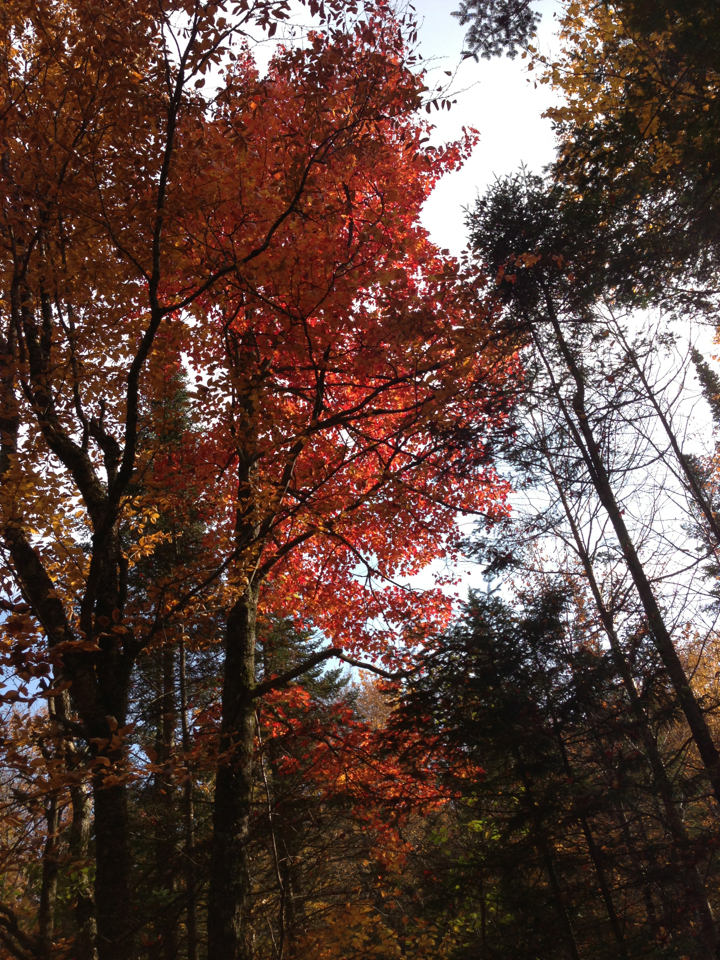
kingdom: Plantae
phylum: Tracheophyta
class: Magnoliopsida
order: Sapindales
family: Sapindaceae
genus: Acer
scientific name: Acer rubrum
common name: Red maple
